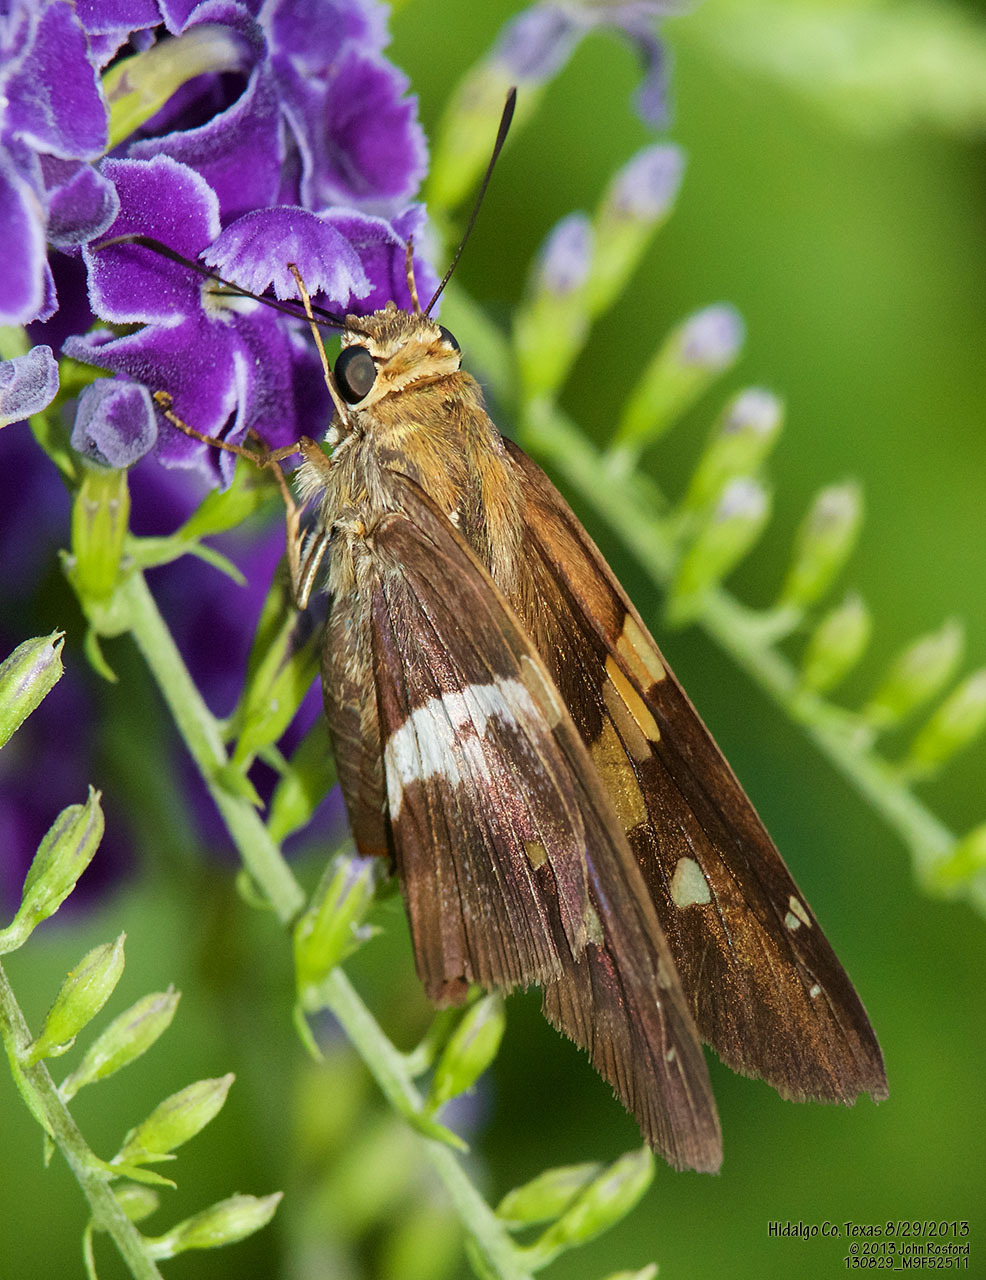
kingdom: Animalia
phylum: Arthropoda
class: Insecta
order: Lepidoptera
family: Hesperiidae
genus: Aguna
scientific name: Aguna asander
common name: Gold-spotted aguna
